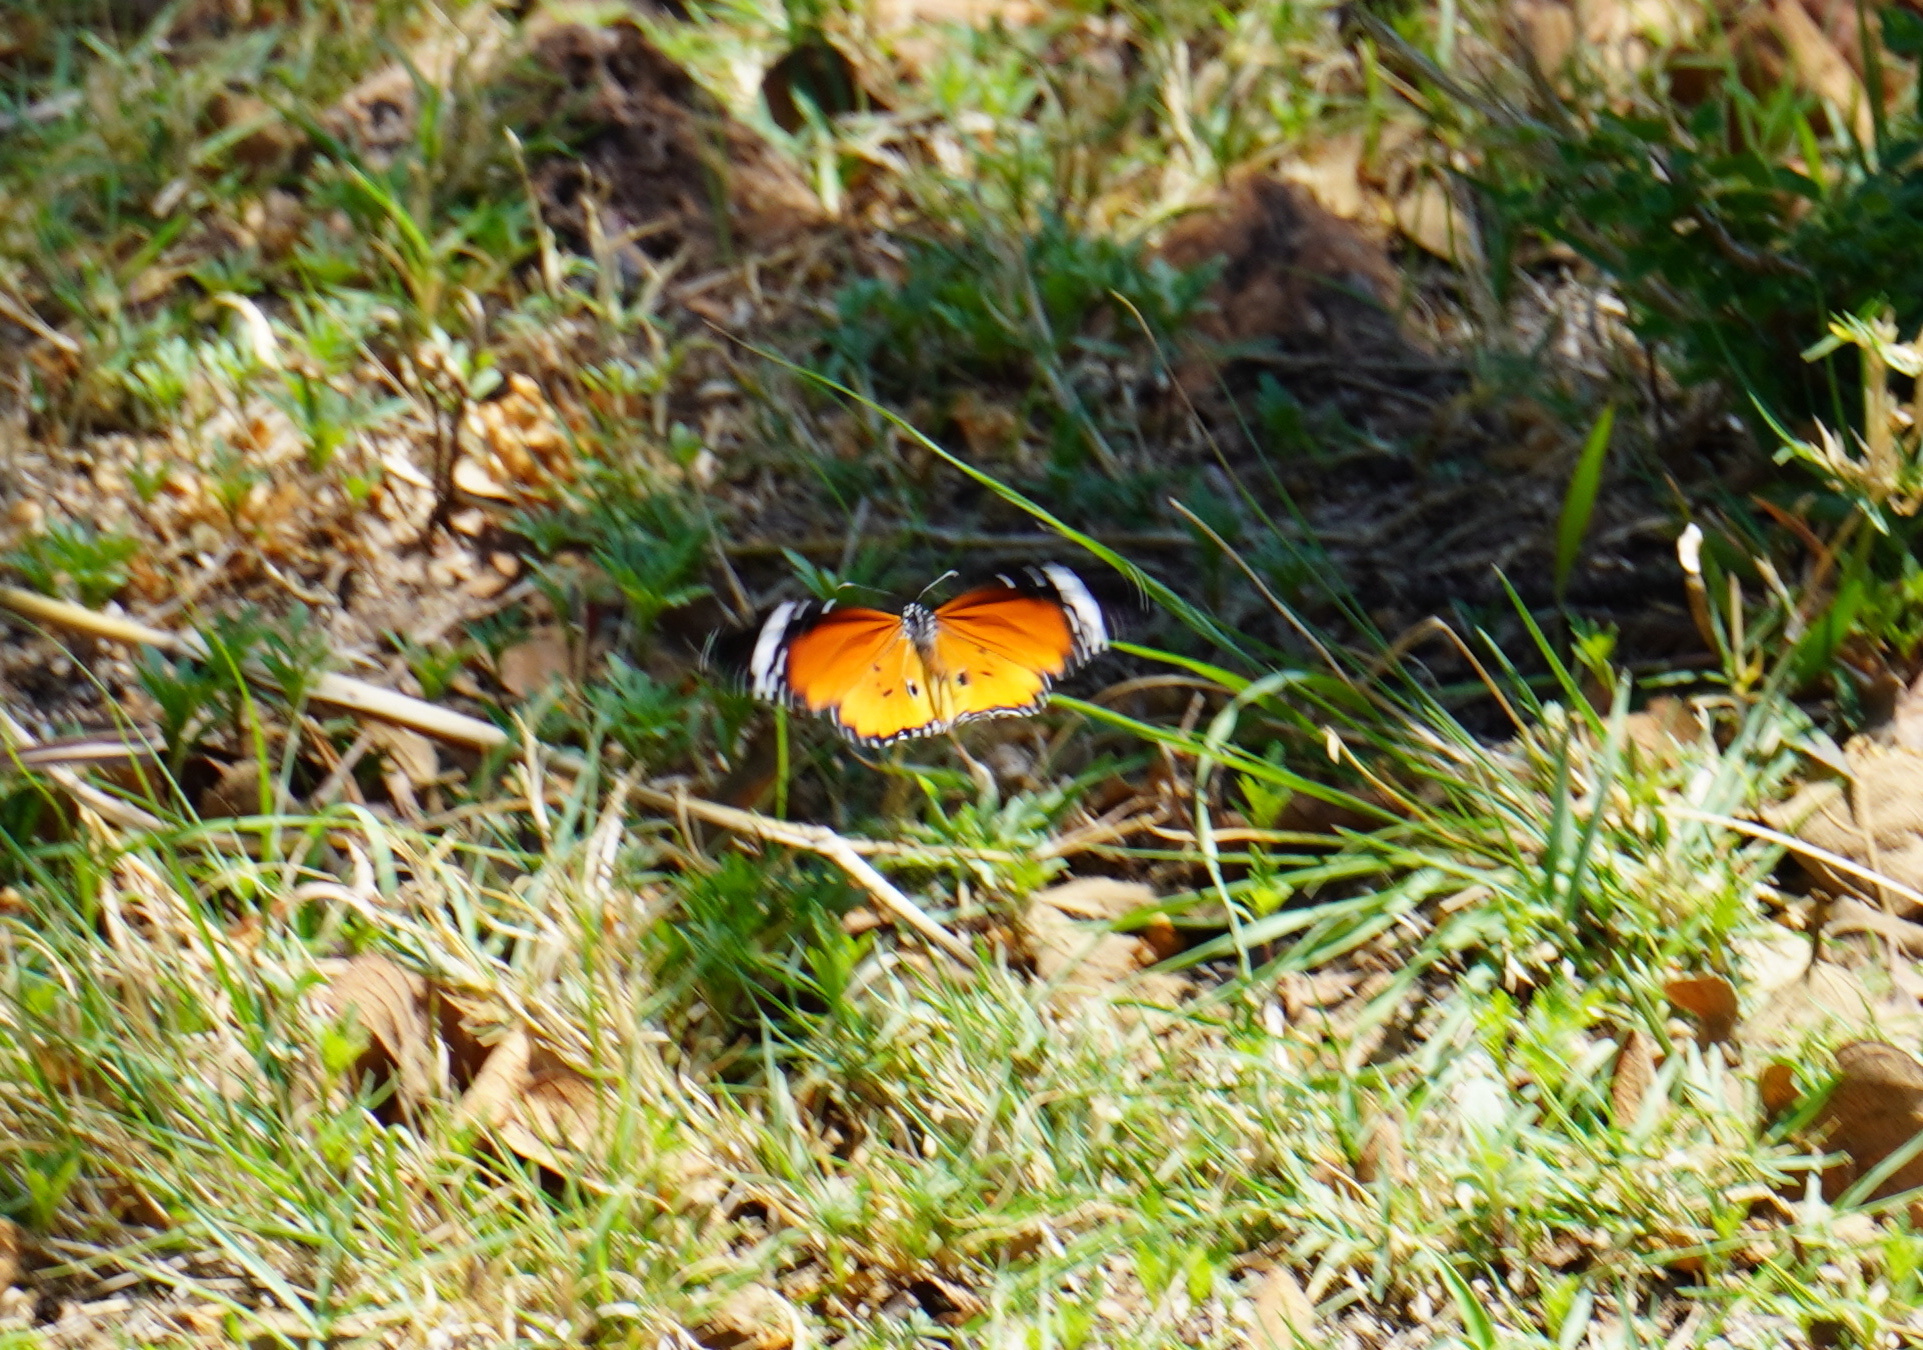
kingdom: Animalia
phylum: Arthropoda
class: Insecta
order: Lepidoptera
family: Nymphalidae
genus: Danaus
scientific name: Danaus chrysippus
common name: Plain tiger
